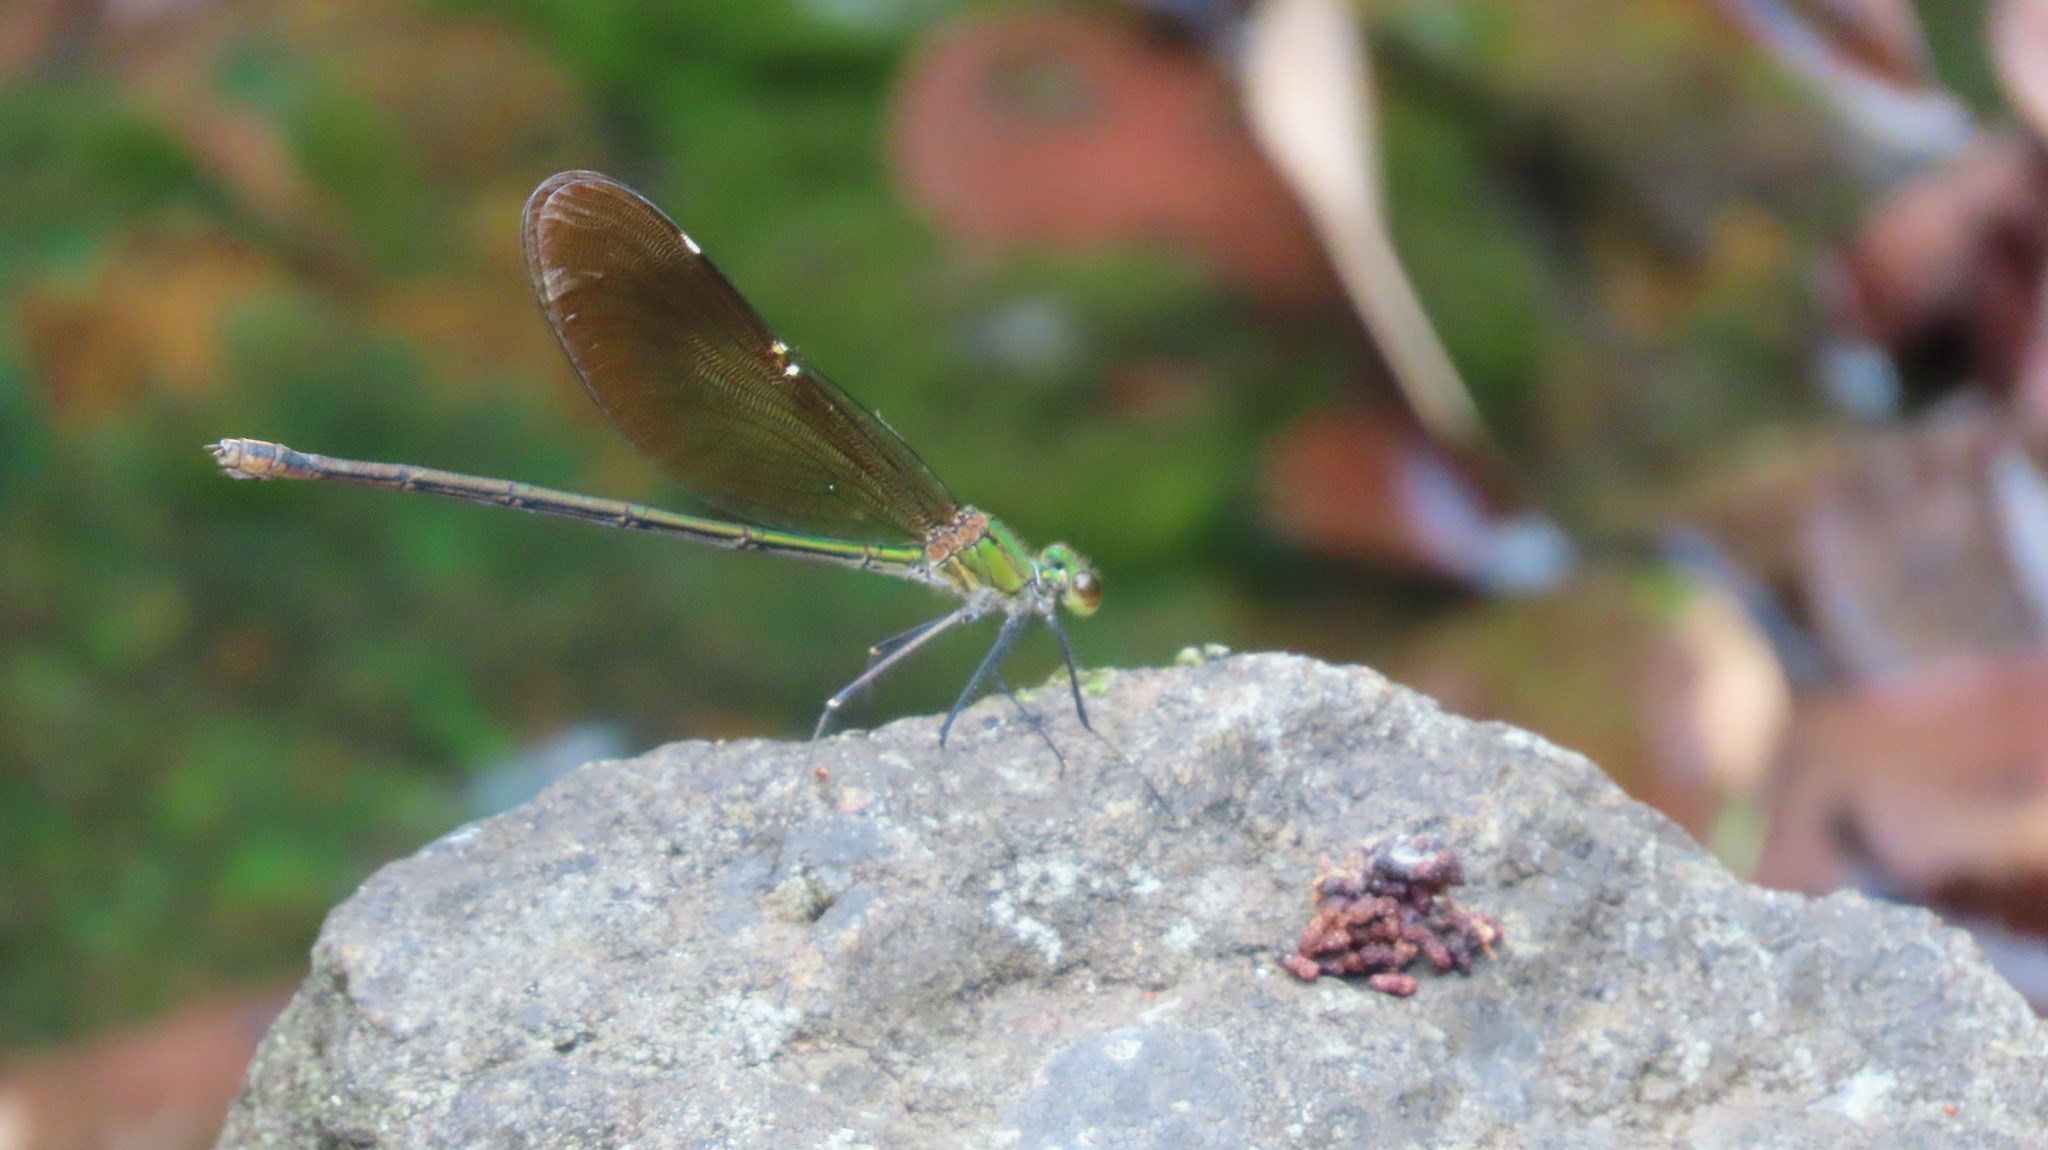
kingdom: Animalia
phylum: Arthropoda
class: Insecta
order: Odonata
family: Calopterygidae
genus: Neurobasis
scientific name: Neurobasis chinensis
